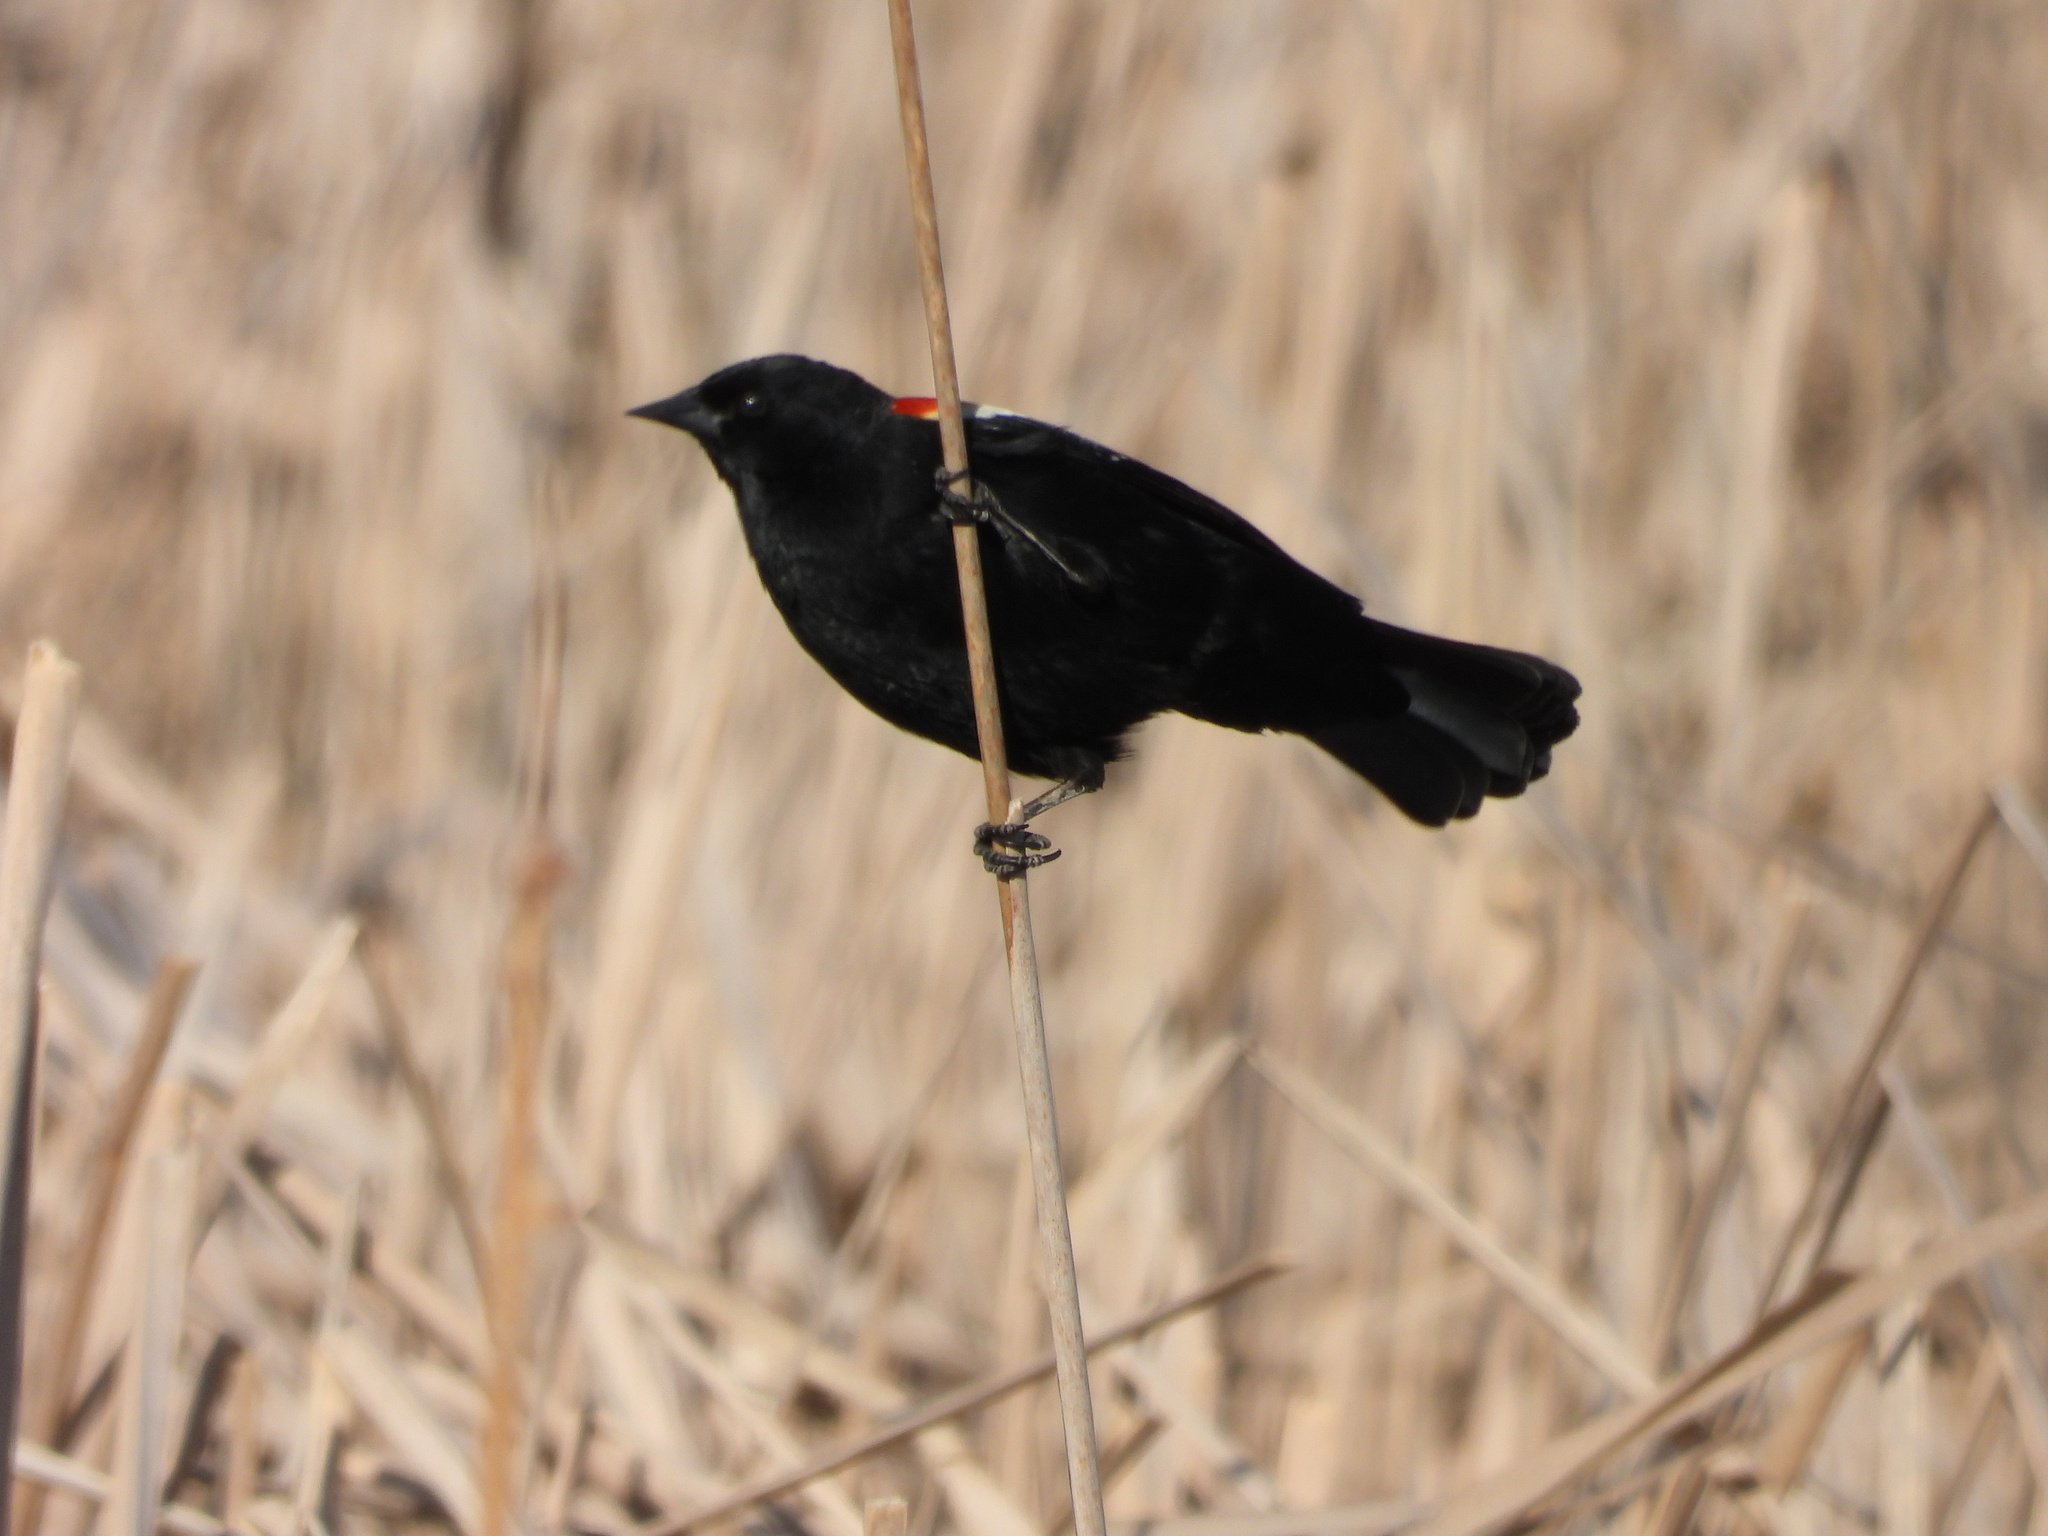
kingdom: Animalia
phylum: Chordata
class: Aves
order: Passeriformes
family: Icteridae
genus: Agelaius
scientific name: Agelaius phoeniceus
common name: Red-winged blackbird
